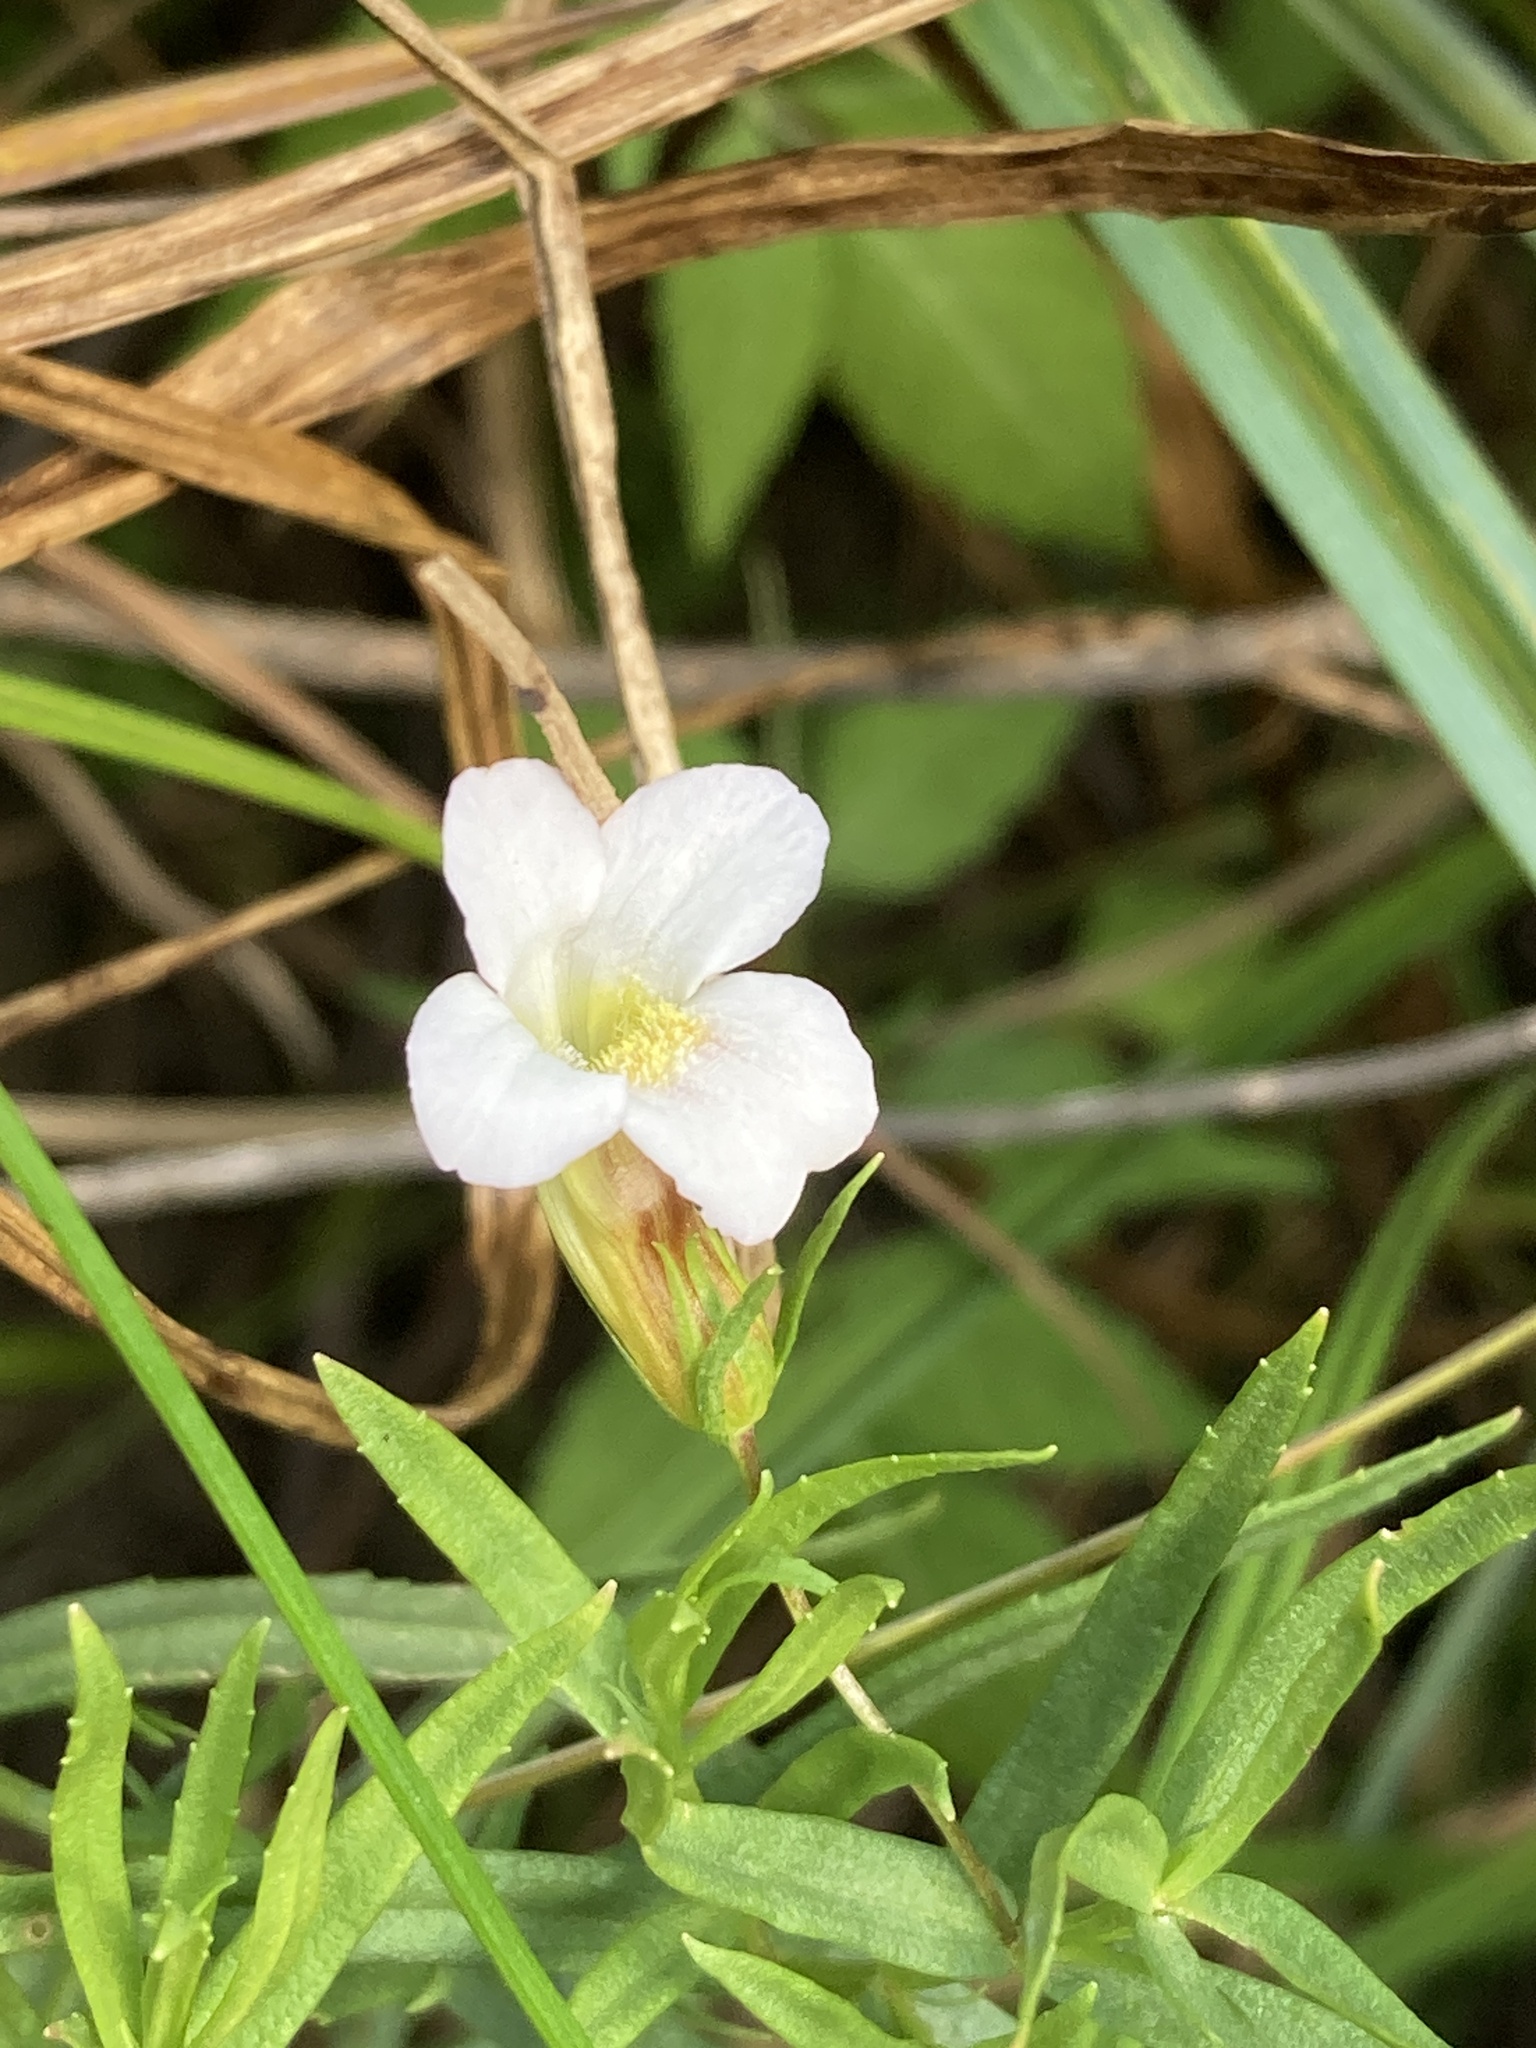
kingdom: Plantae
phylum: Tracheophyta
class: Magnoliopsida
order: Lamiales
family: Plantaginaceae
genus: Gratiola
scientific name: Gratiola officinalis
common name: Gratiola
